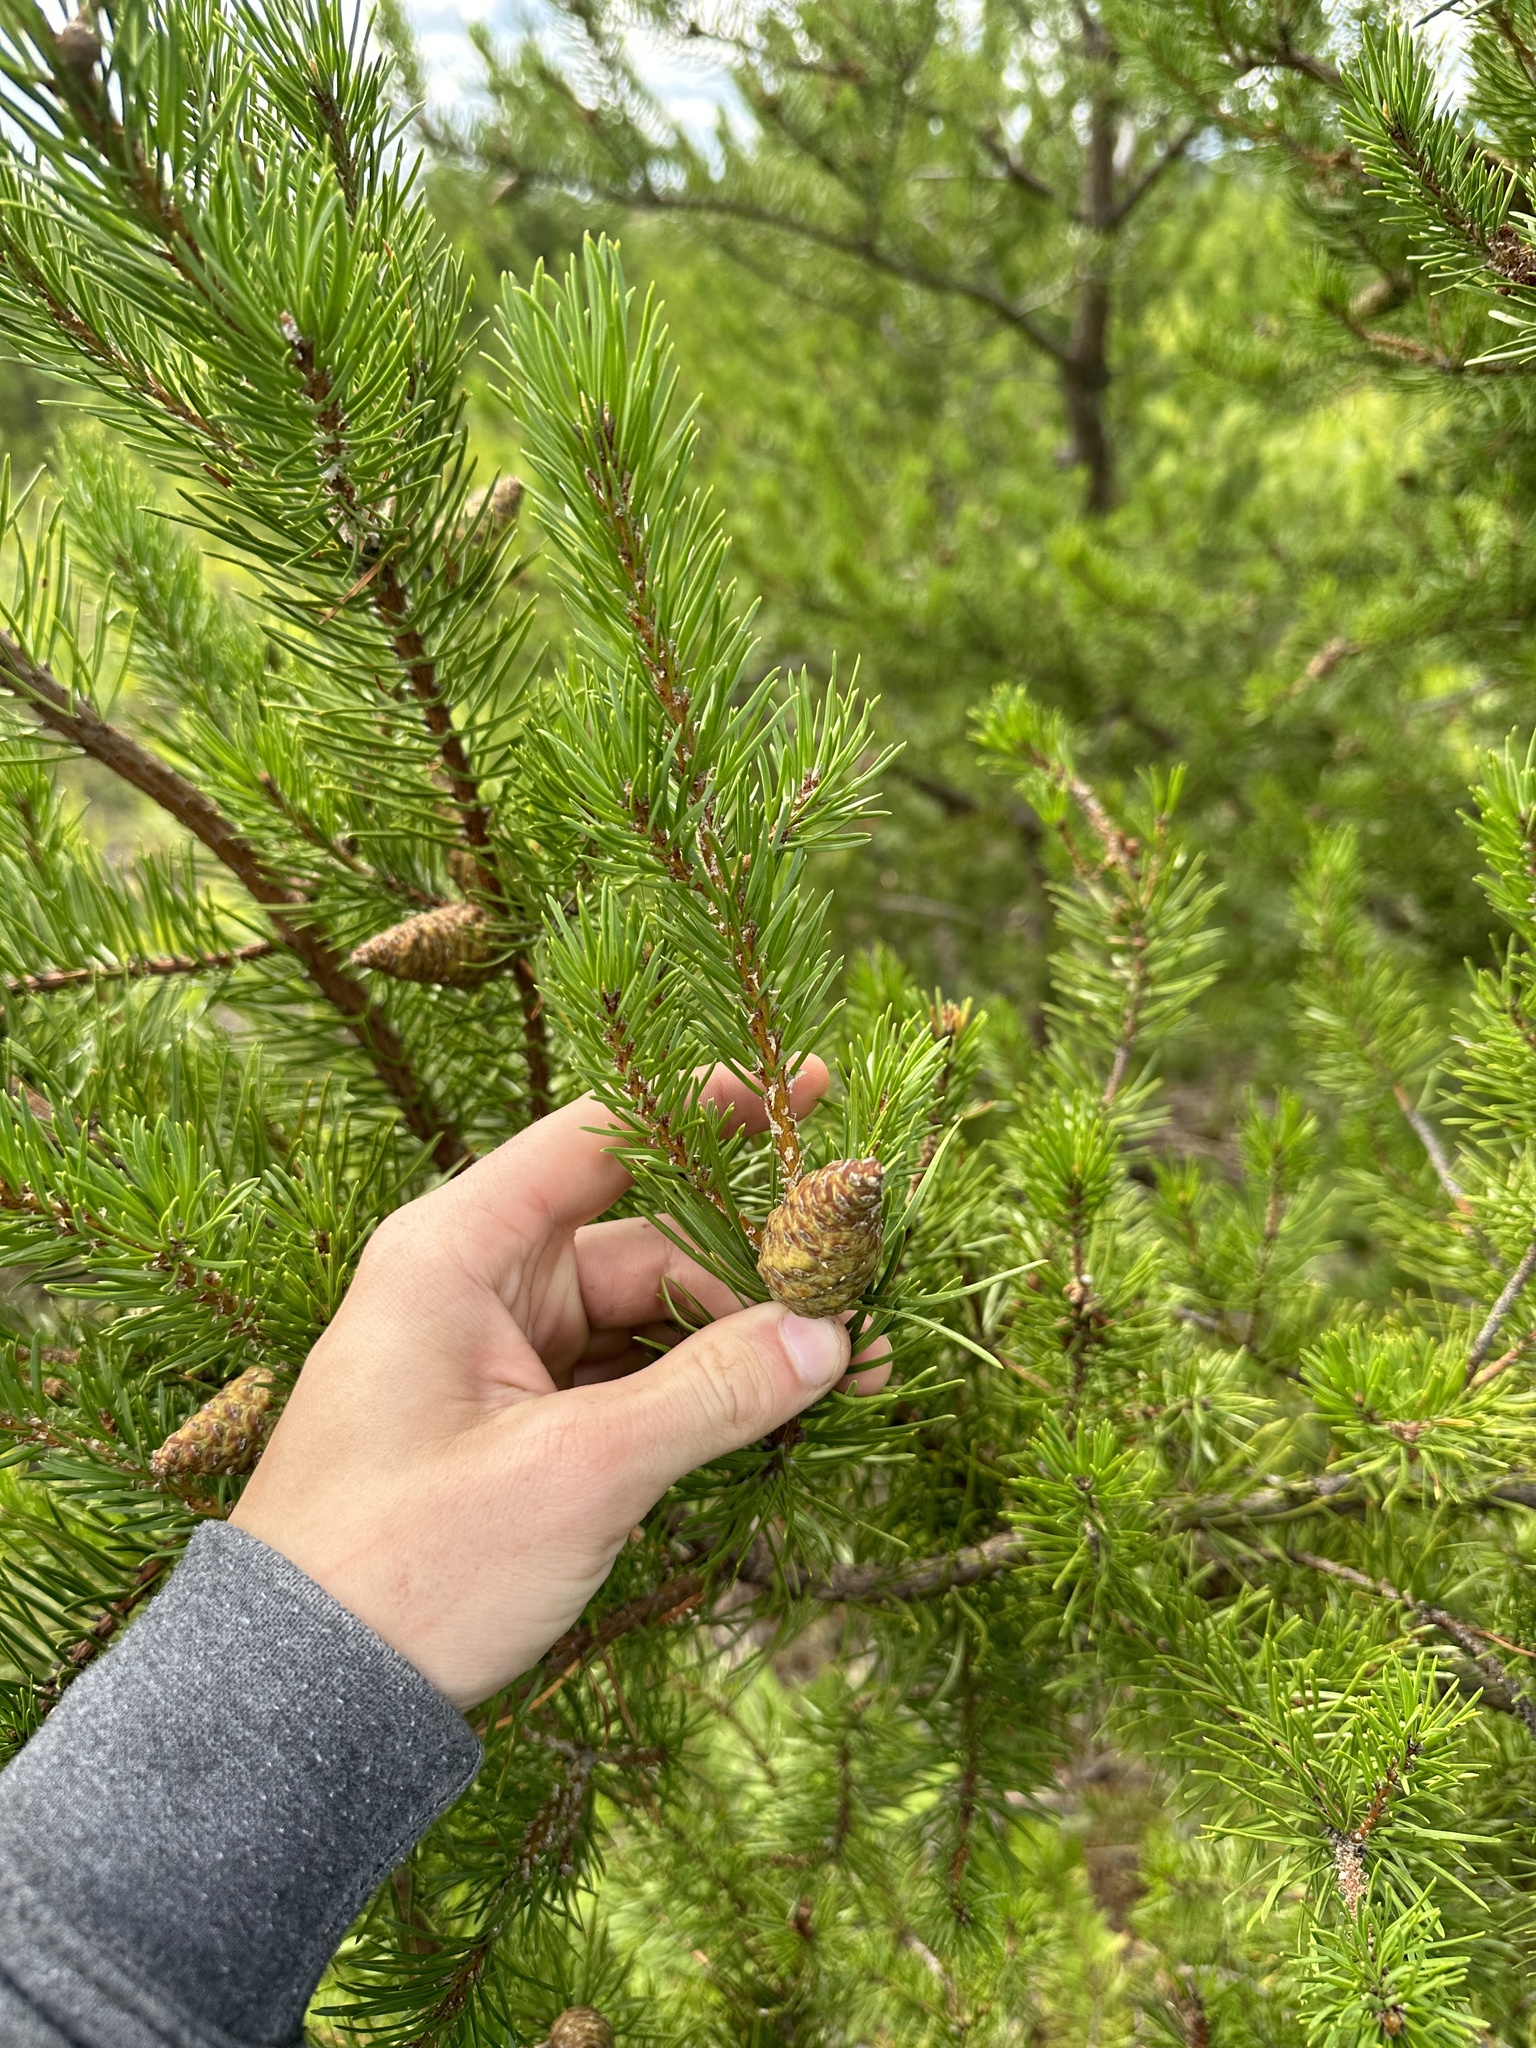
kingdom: Plantae
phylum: Tracheophyta
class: Pinopsida
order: Pinales
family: Pinaceae
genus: Pinus
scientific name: Pinus banksiana
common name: Jack pine
